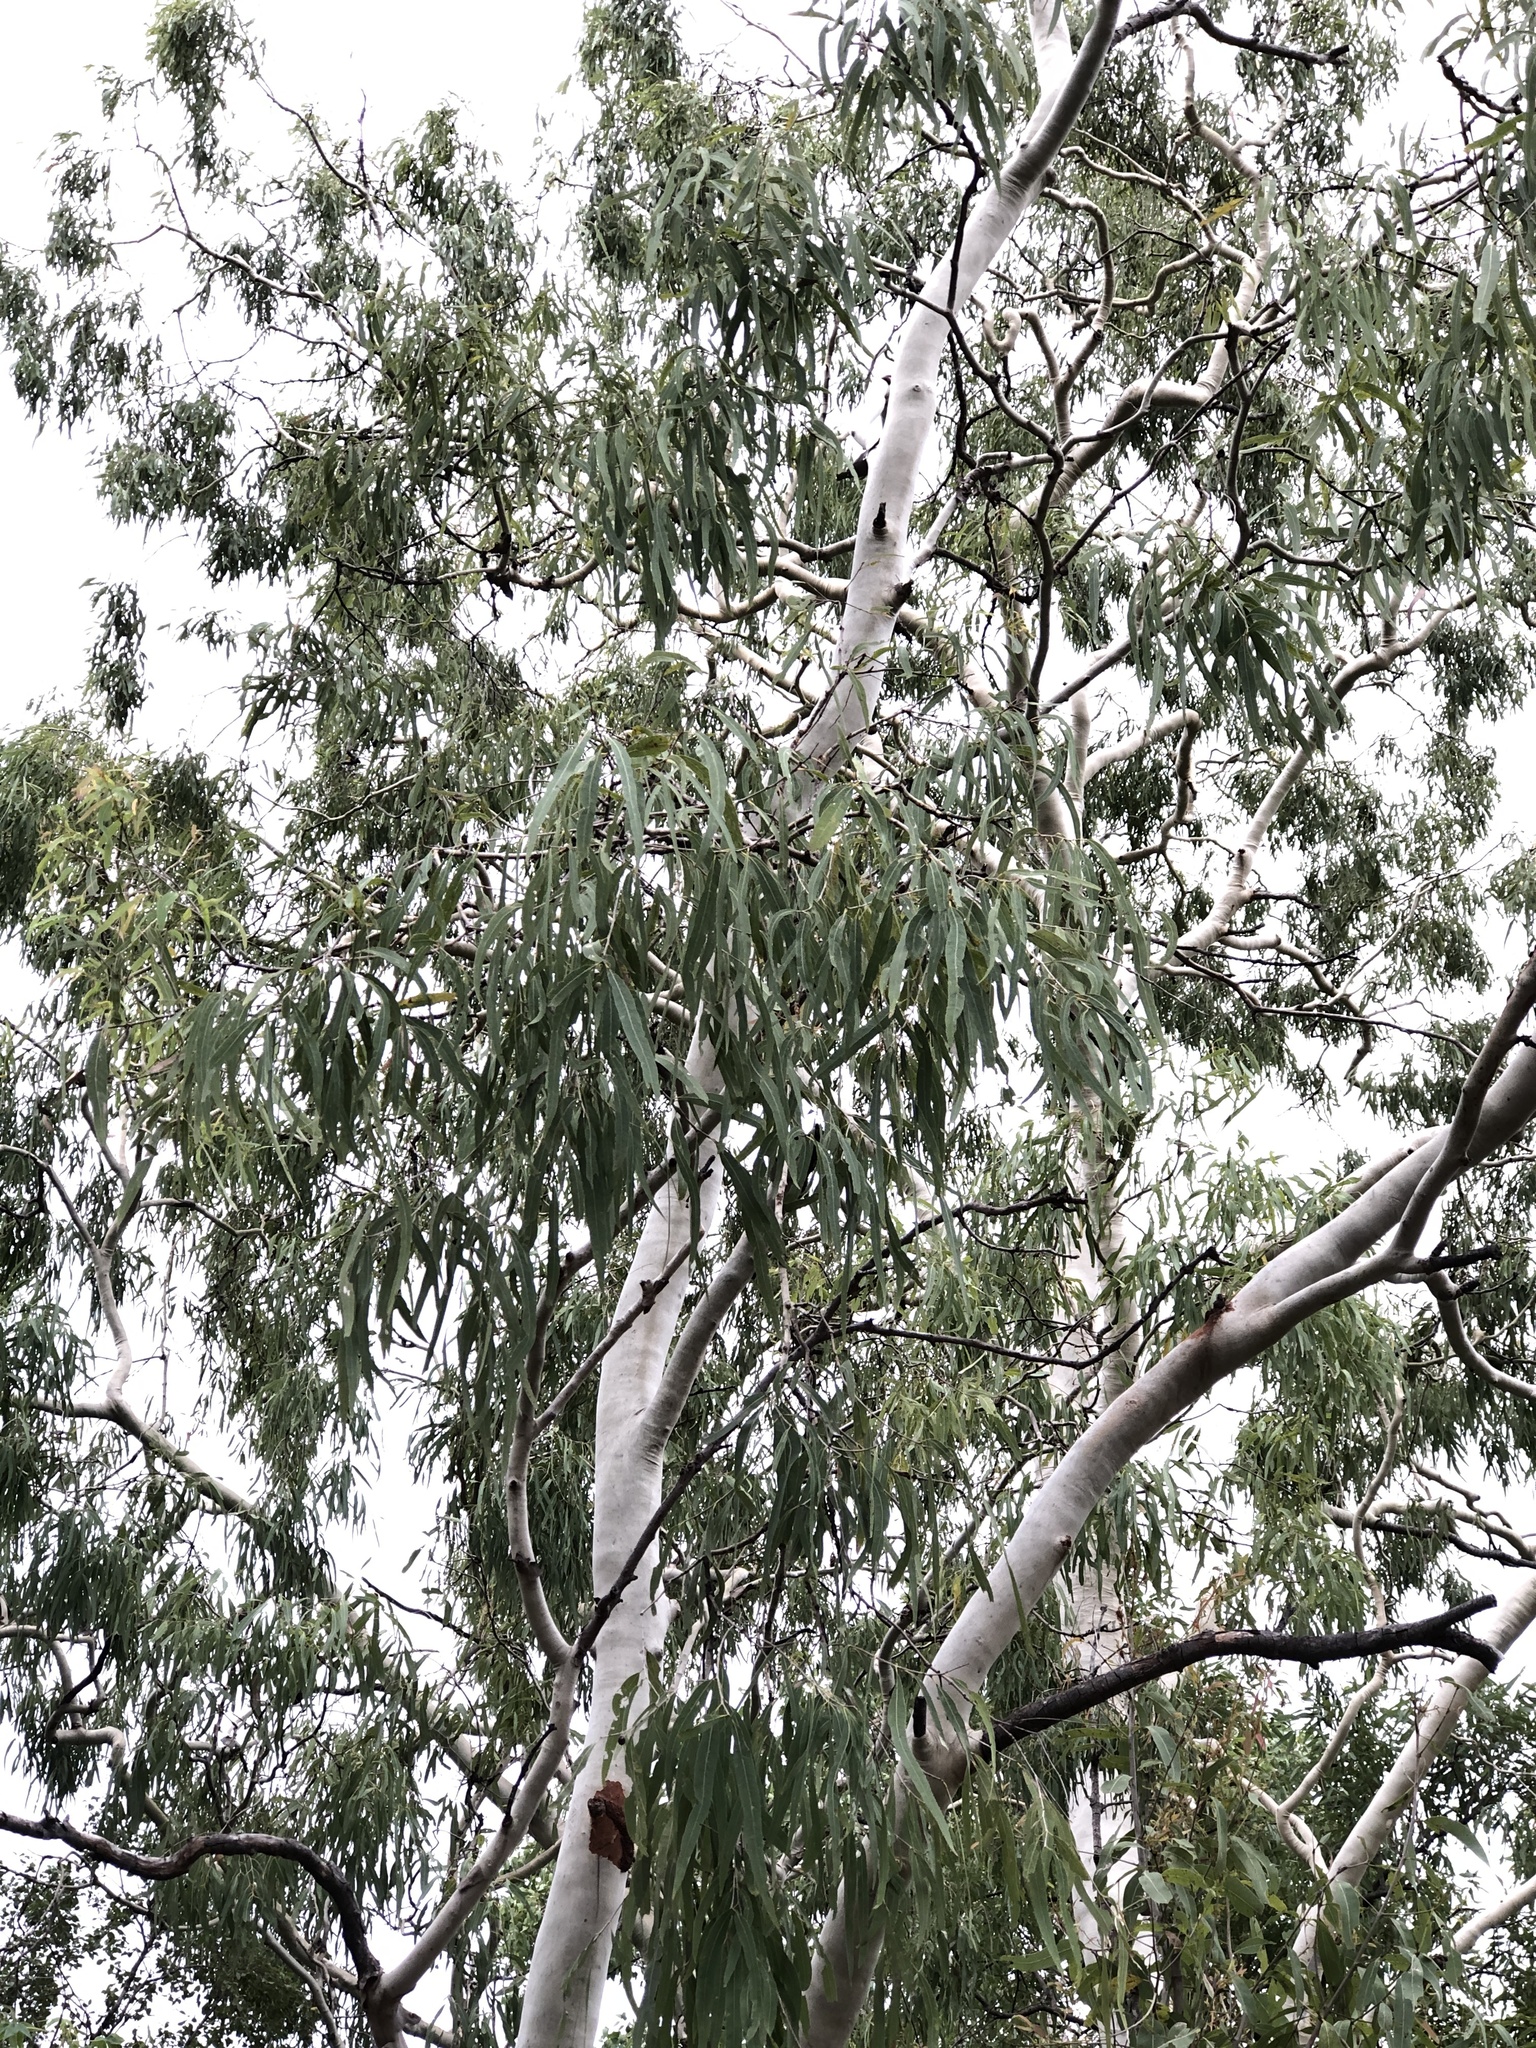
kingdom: Plantae
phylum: Tracheophyta
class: Magnoliopsida
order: Myrtales
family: Myrtaceae
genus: Corymbia
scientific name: Corymbia tessellaris
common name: Carbeen
